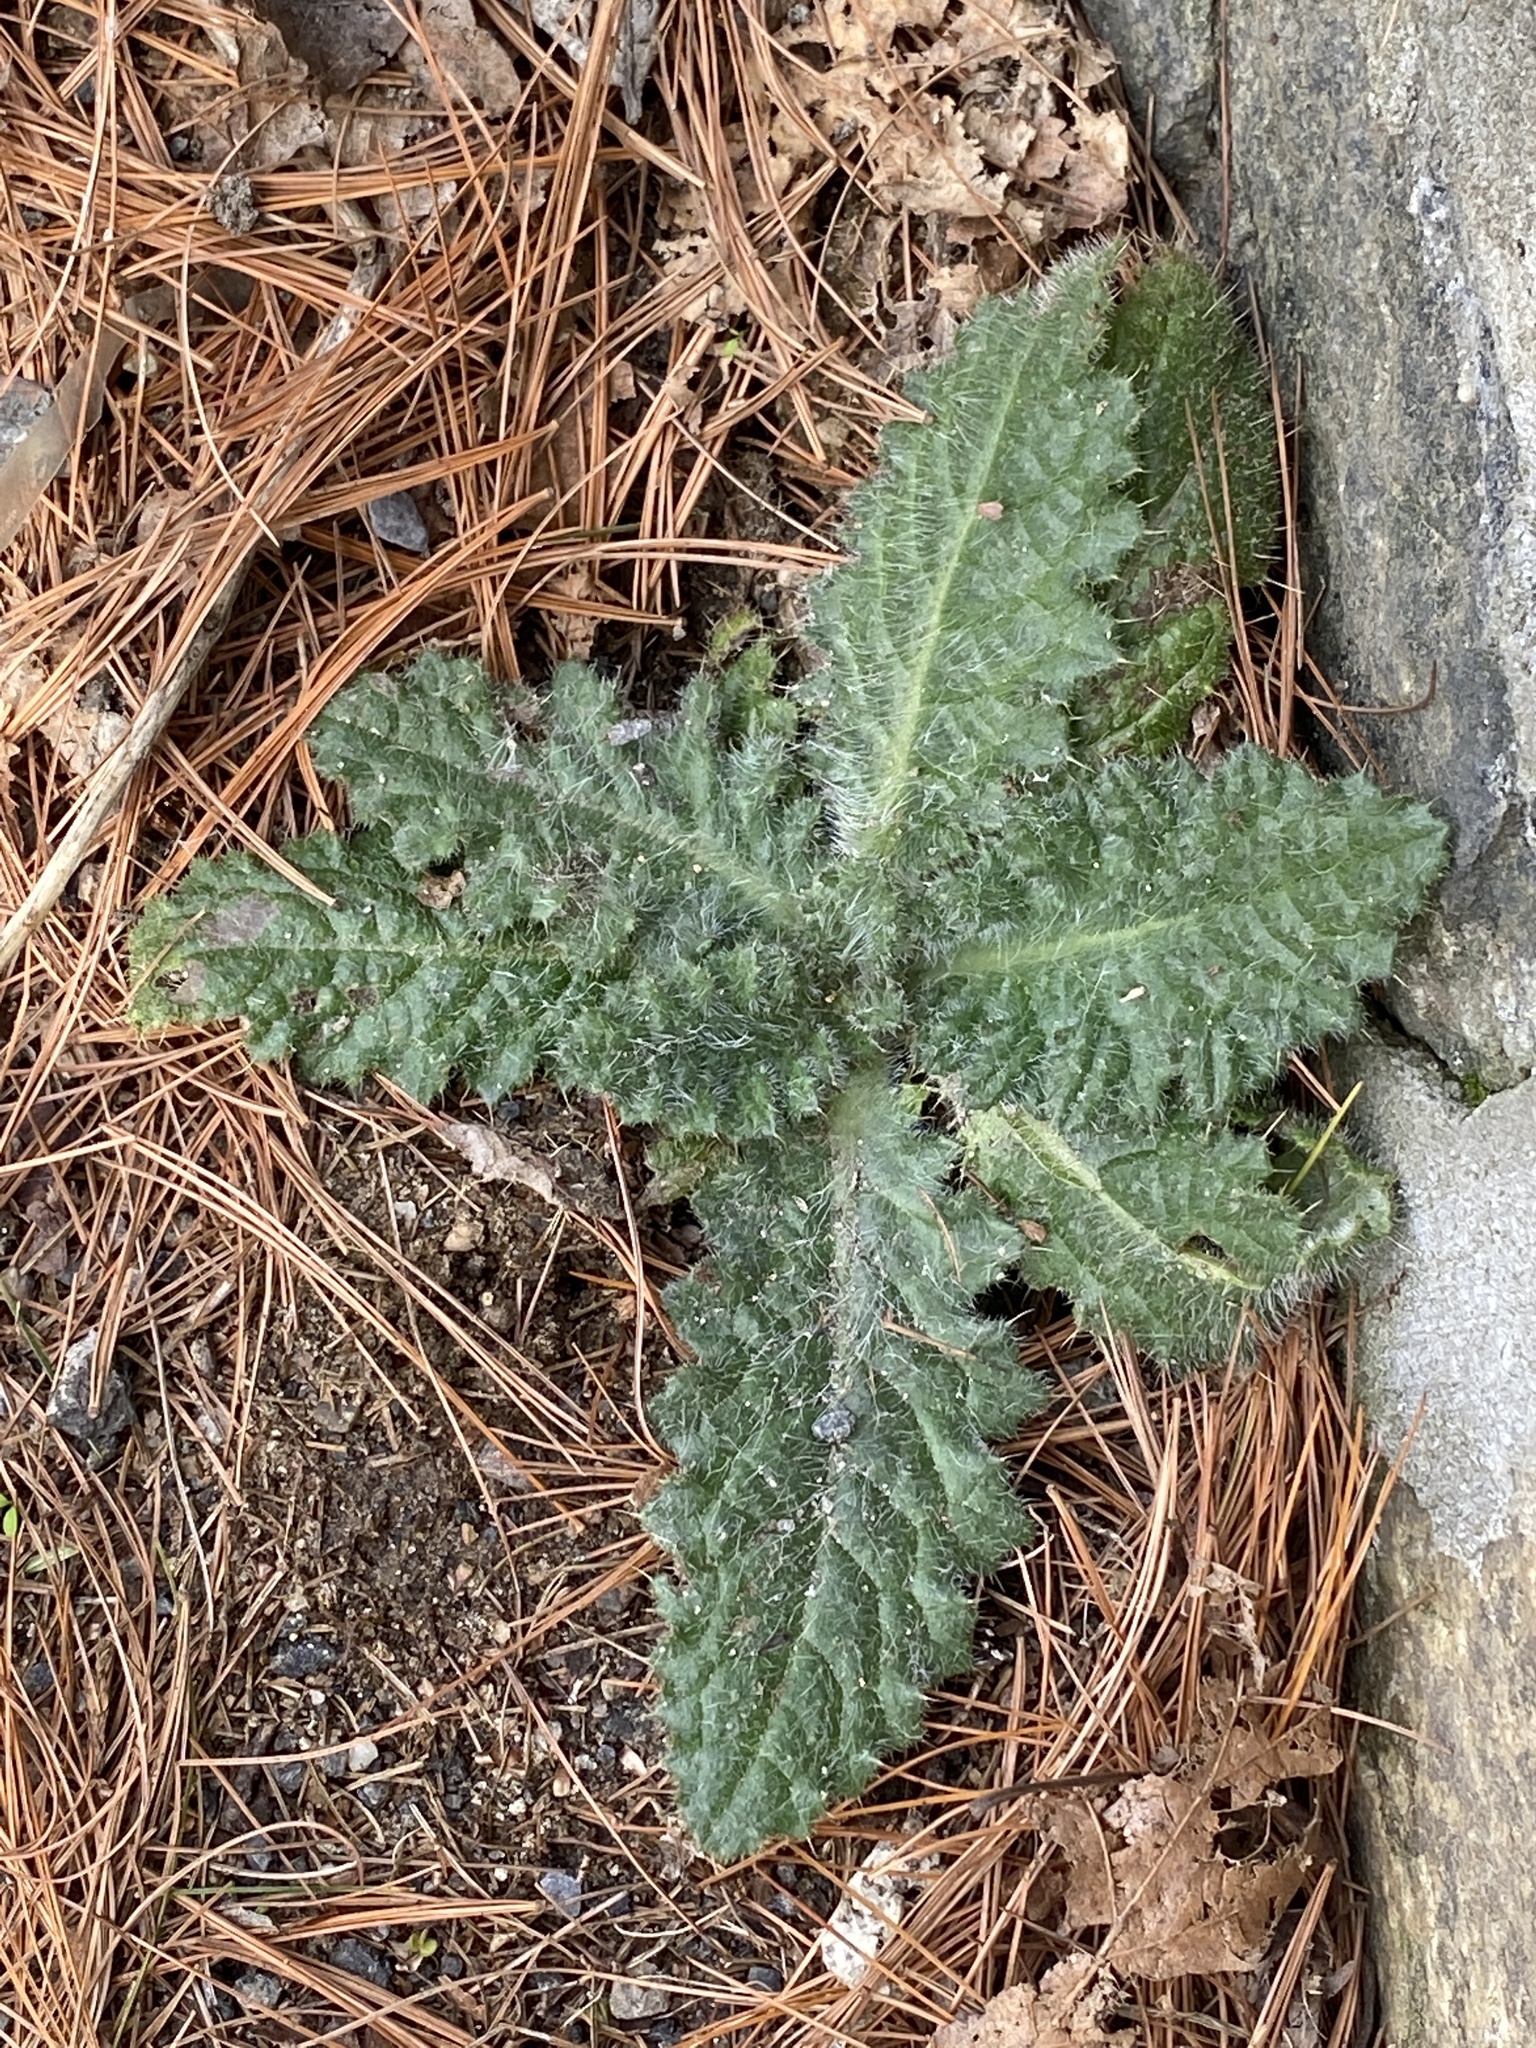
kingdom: Plantae
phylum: Tracheophyta
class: Magnoliopsida
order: Asterales
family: Asteraceae
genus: Cirsium
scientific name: Cirsium vulgare
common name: Bull thistle
